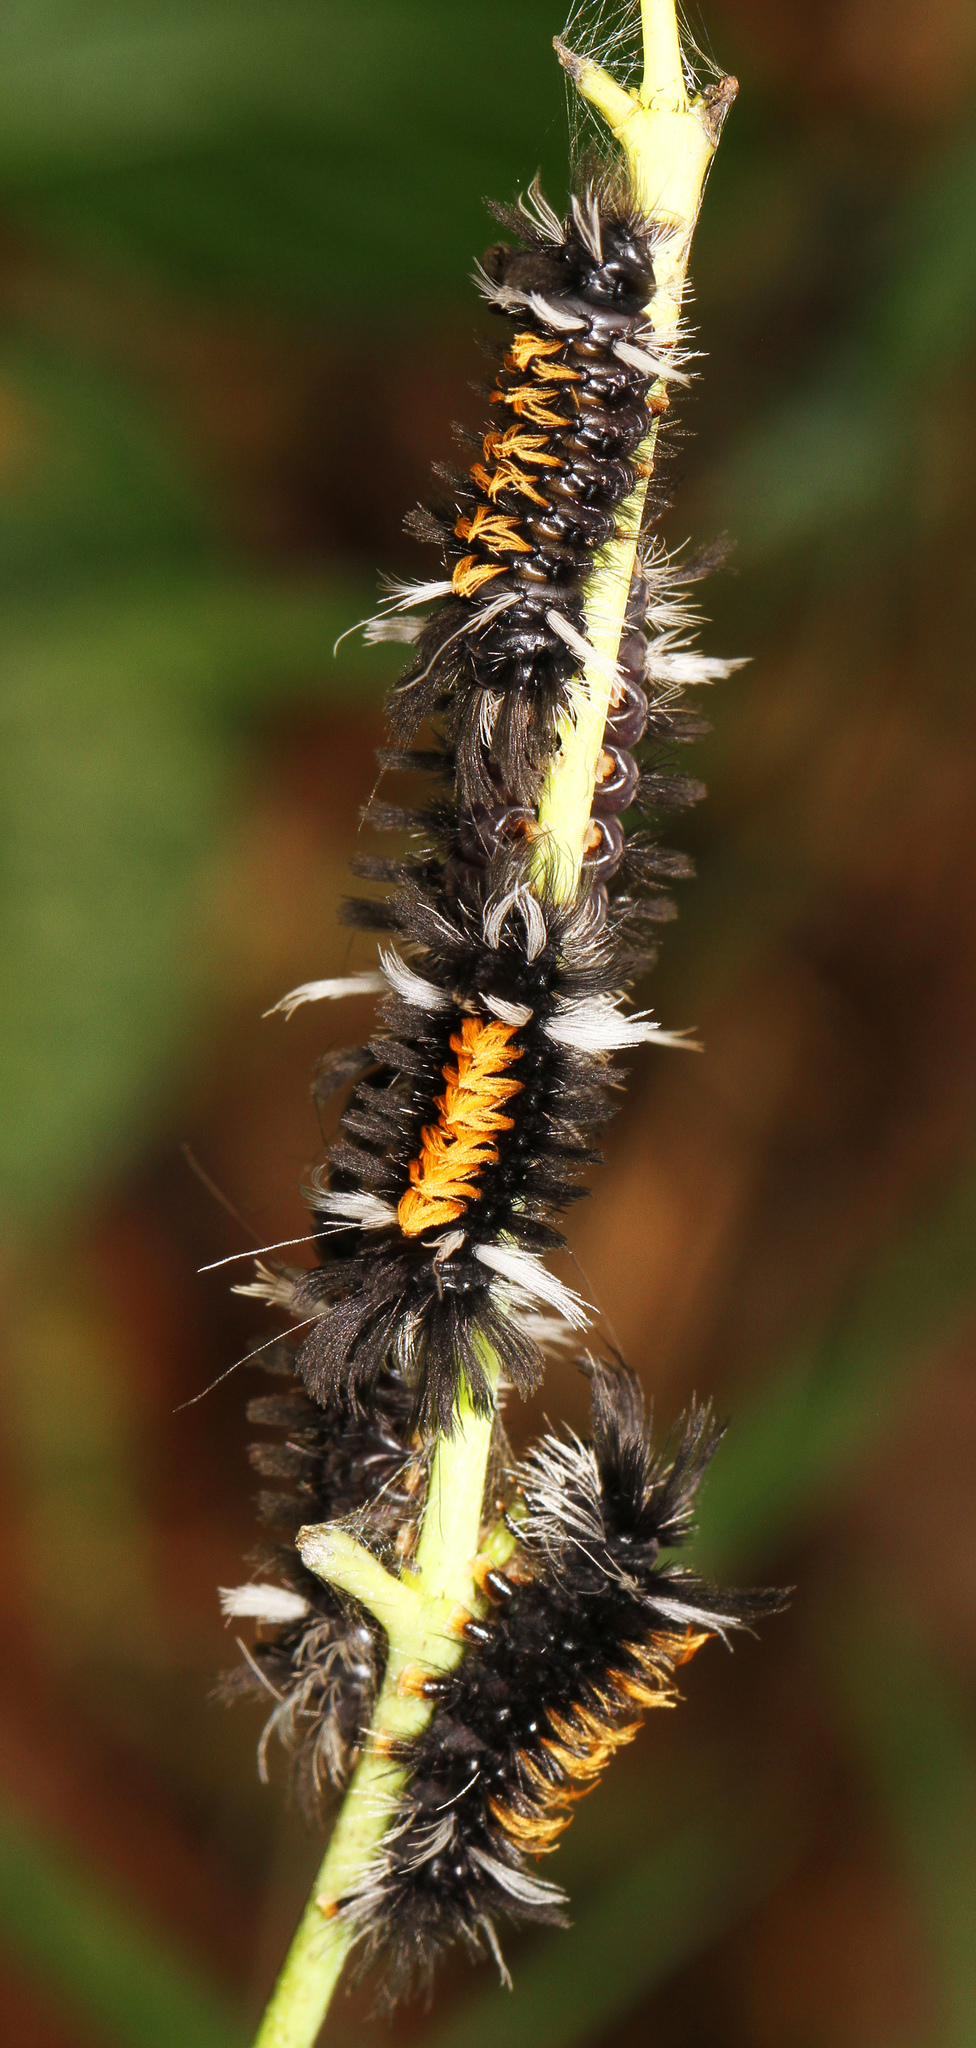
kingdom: Animalia
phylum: Arthropoda
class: Insecta
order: Lepidoptera
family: Erebidae
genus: Euchaetes
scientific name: Euchaetes egle
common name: Milkweed tussock moth
